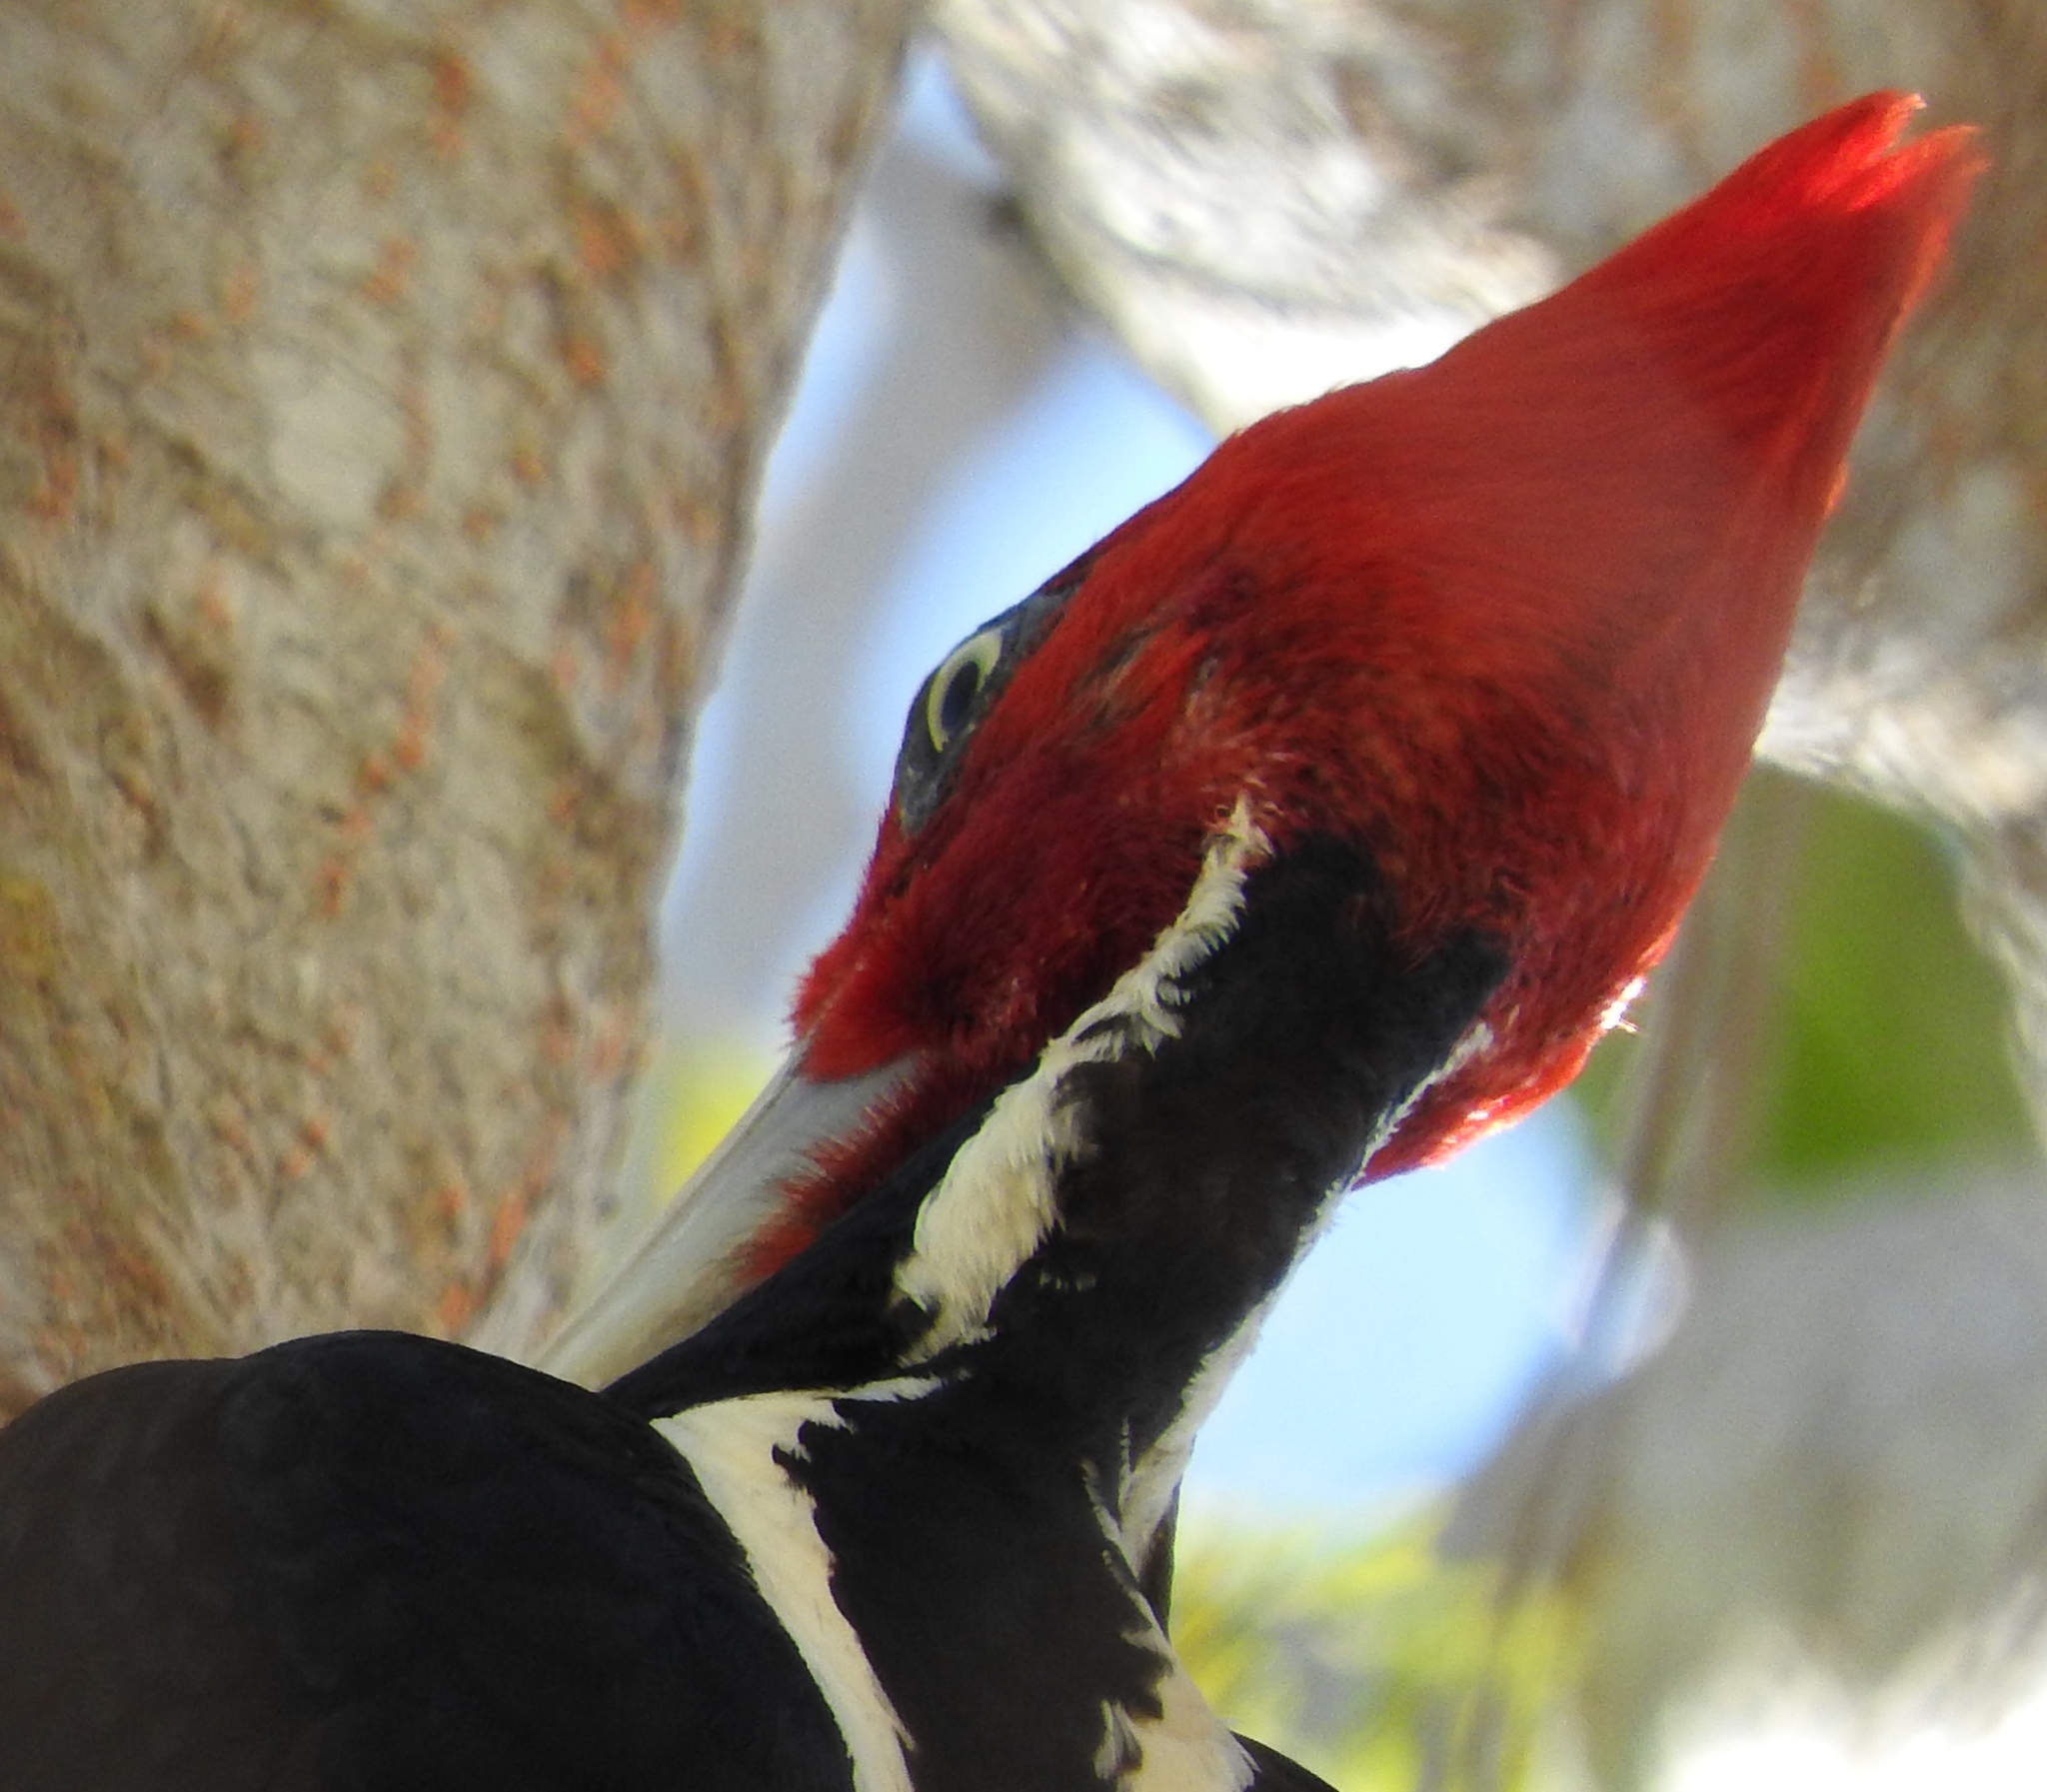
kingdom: Animalia
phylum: Chordata
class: Aves
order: Piciformes
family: Picidae
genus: Campephilus
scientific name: Campephilus guatemalensis
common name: Pale-billed woodpecker
